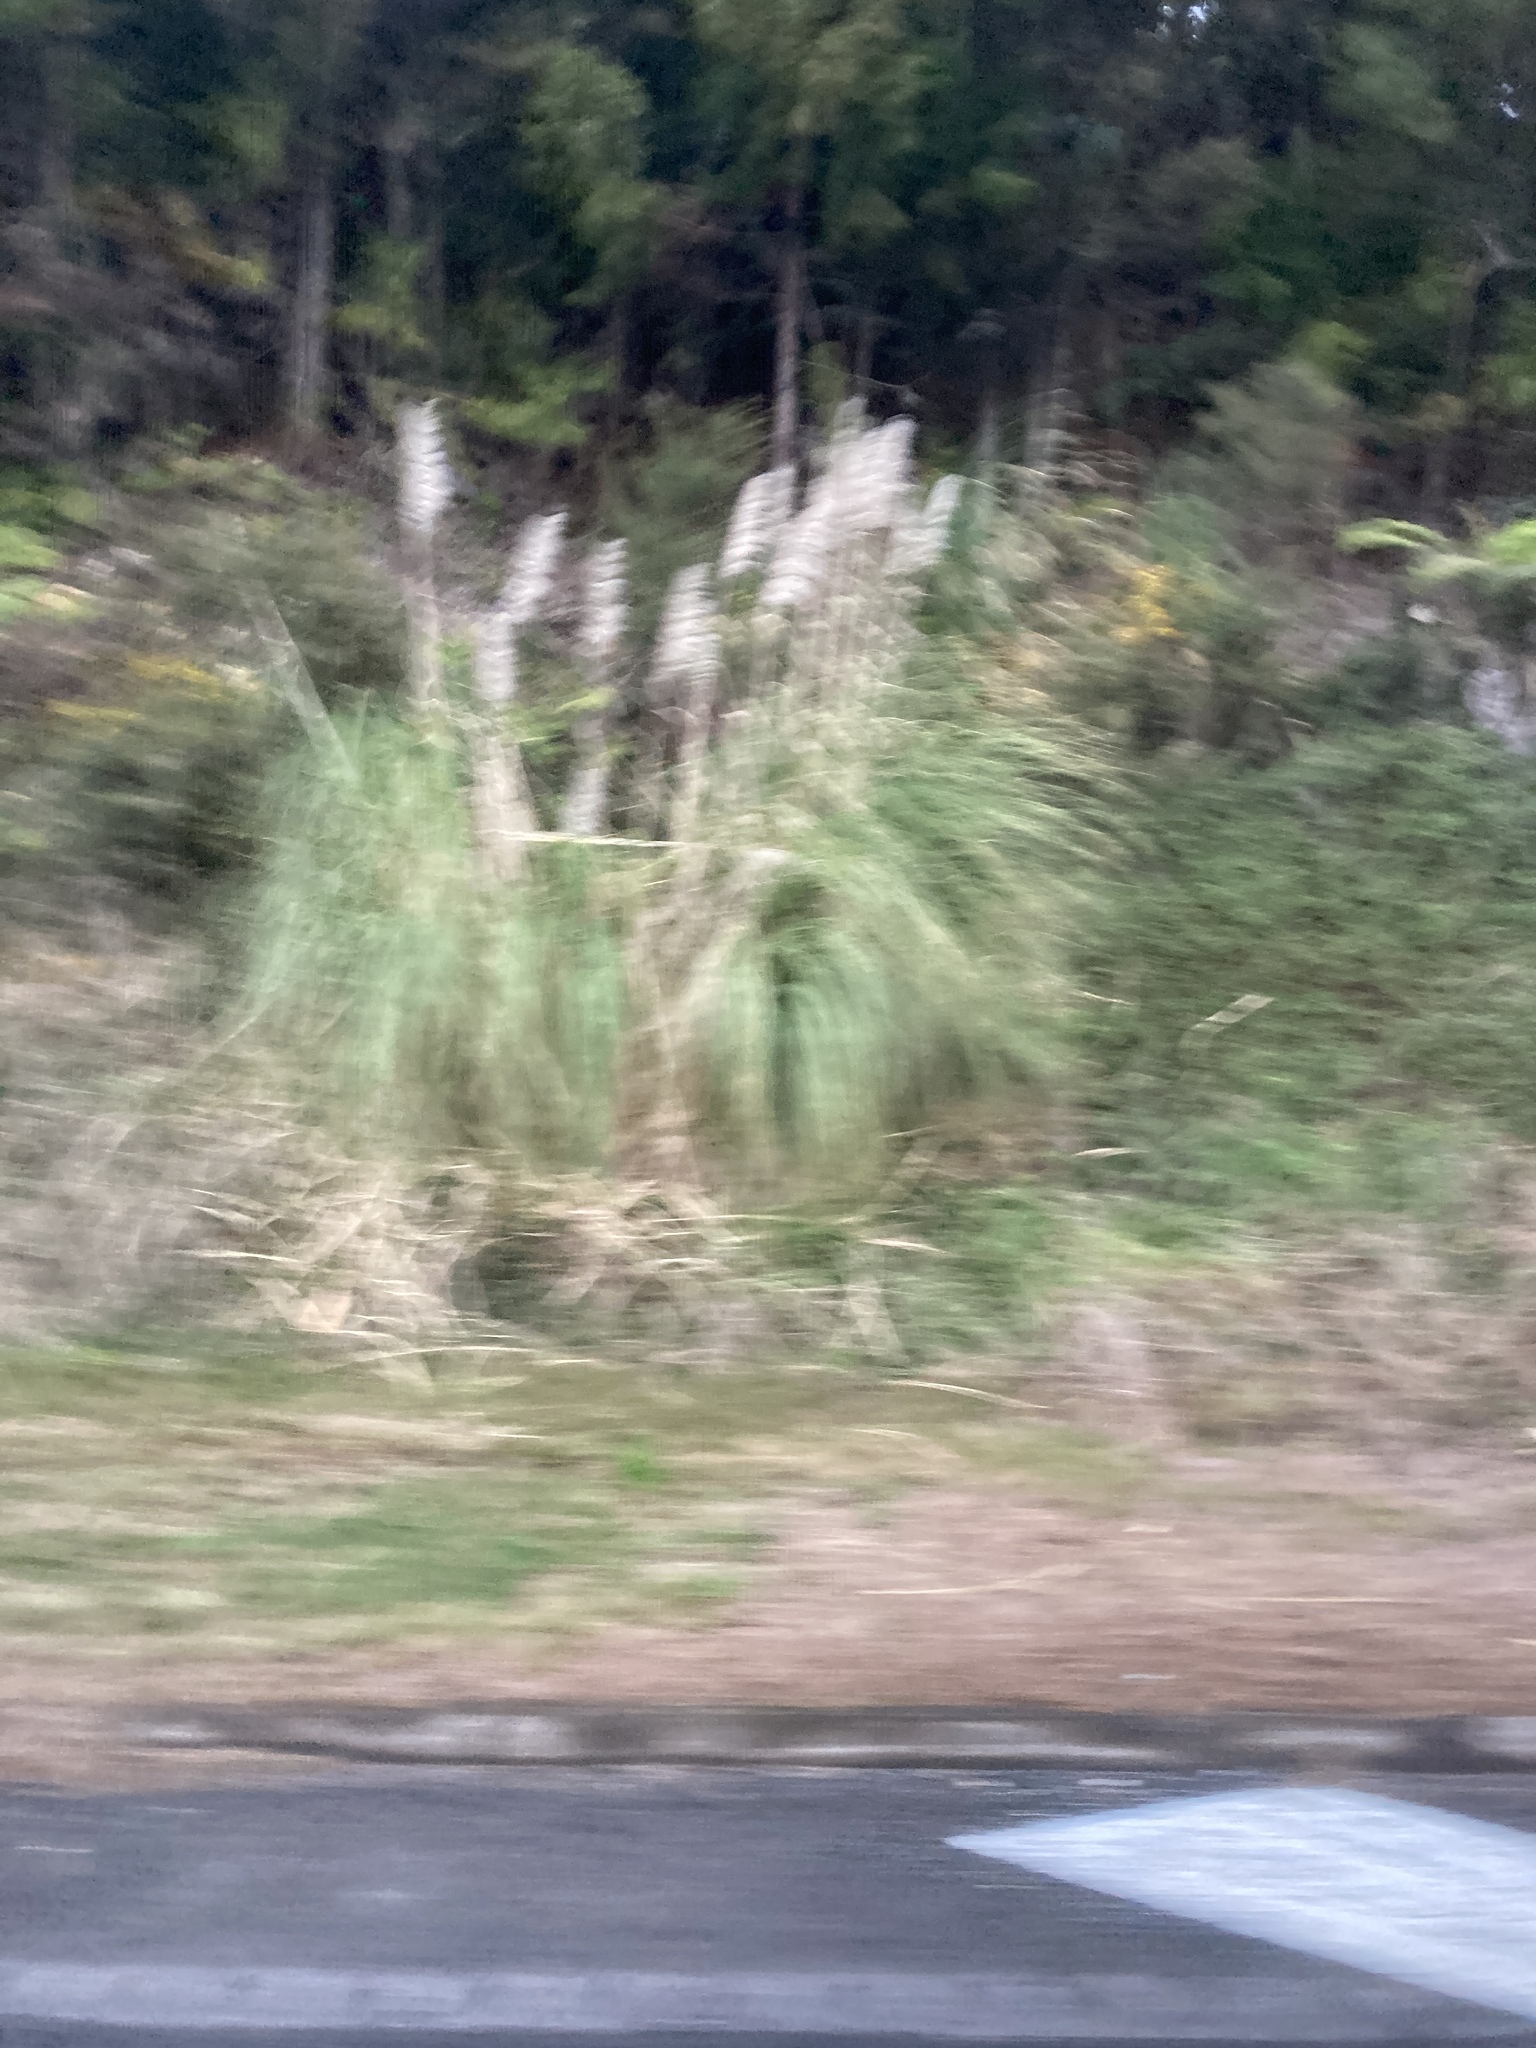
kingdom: Plantae
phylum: Tracheophyta
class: Liliopsida
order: Poales
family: Poaceae
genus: Cortaderia
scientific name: Cortaderia selloana
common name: Uruguayan pampas grass
